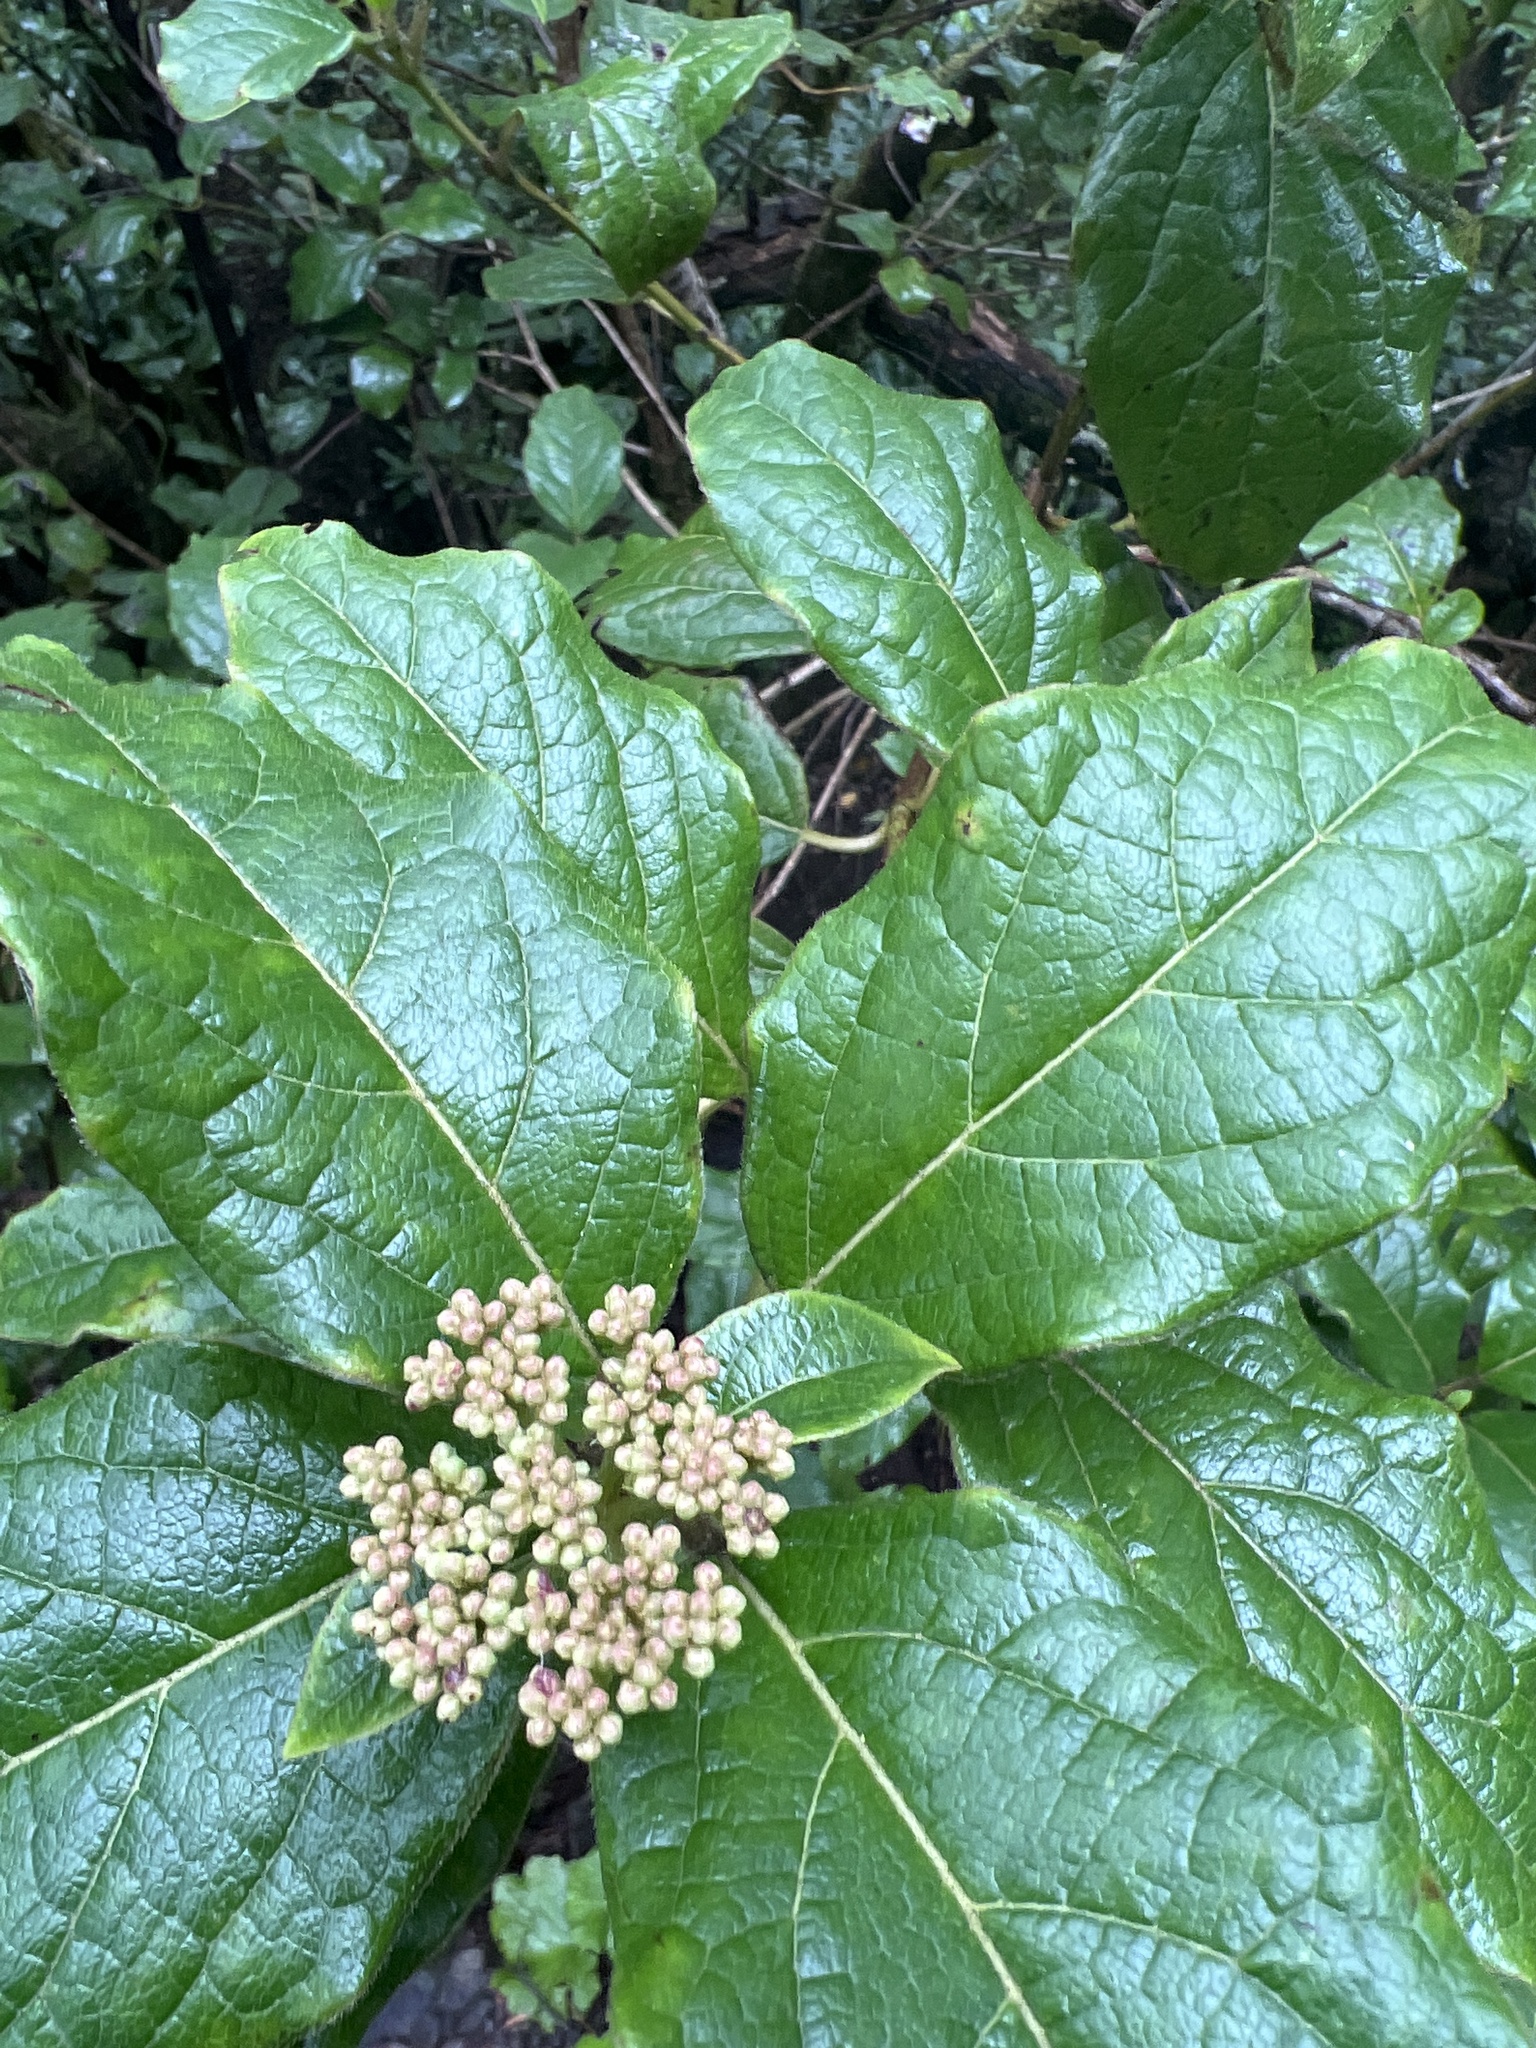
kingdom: Plantae
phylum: Tracheophyta
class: Magnoliopsida
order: Dipsacales
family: Viburnaceae
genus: Viburnum
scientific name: Viburnum rugosum
